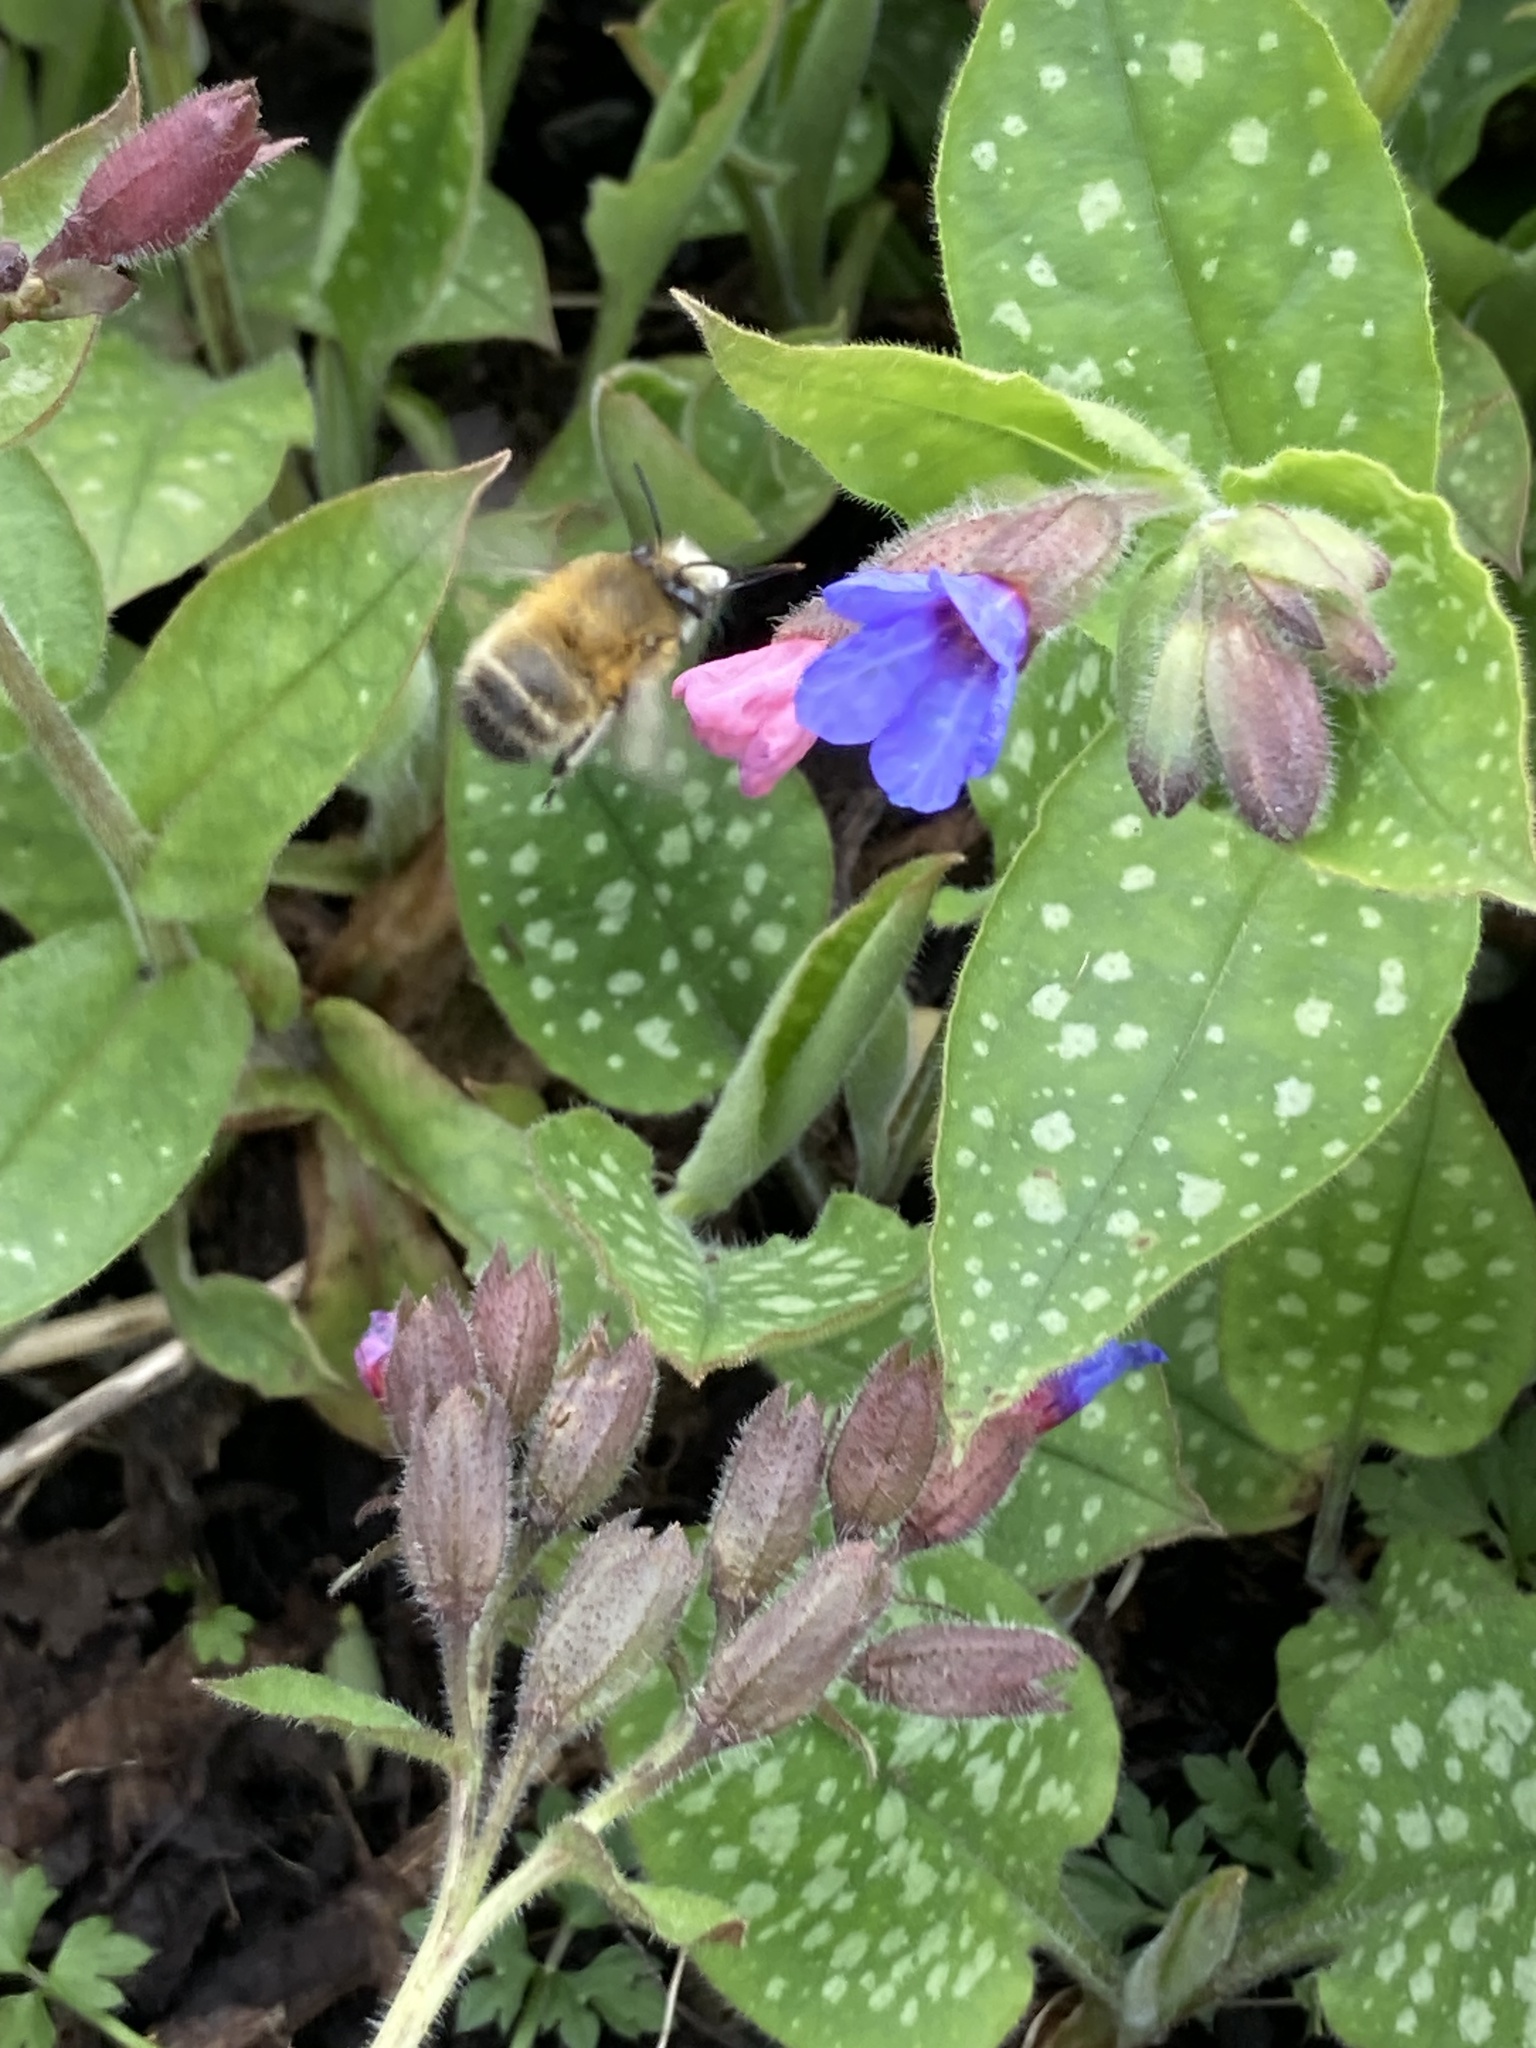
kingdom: Animalia
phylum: Arthropoda
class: Insecta
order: Hymenoptera
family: Apidae
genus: Anthophora
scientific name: Anthophora plumipes
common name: Hairy-footed flower bee
